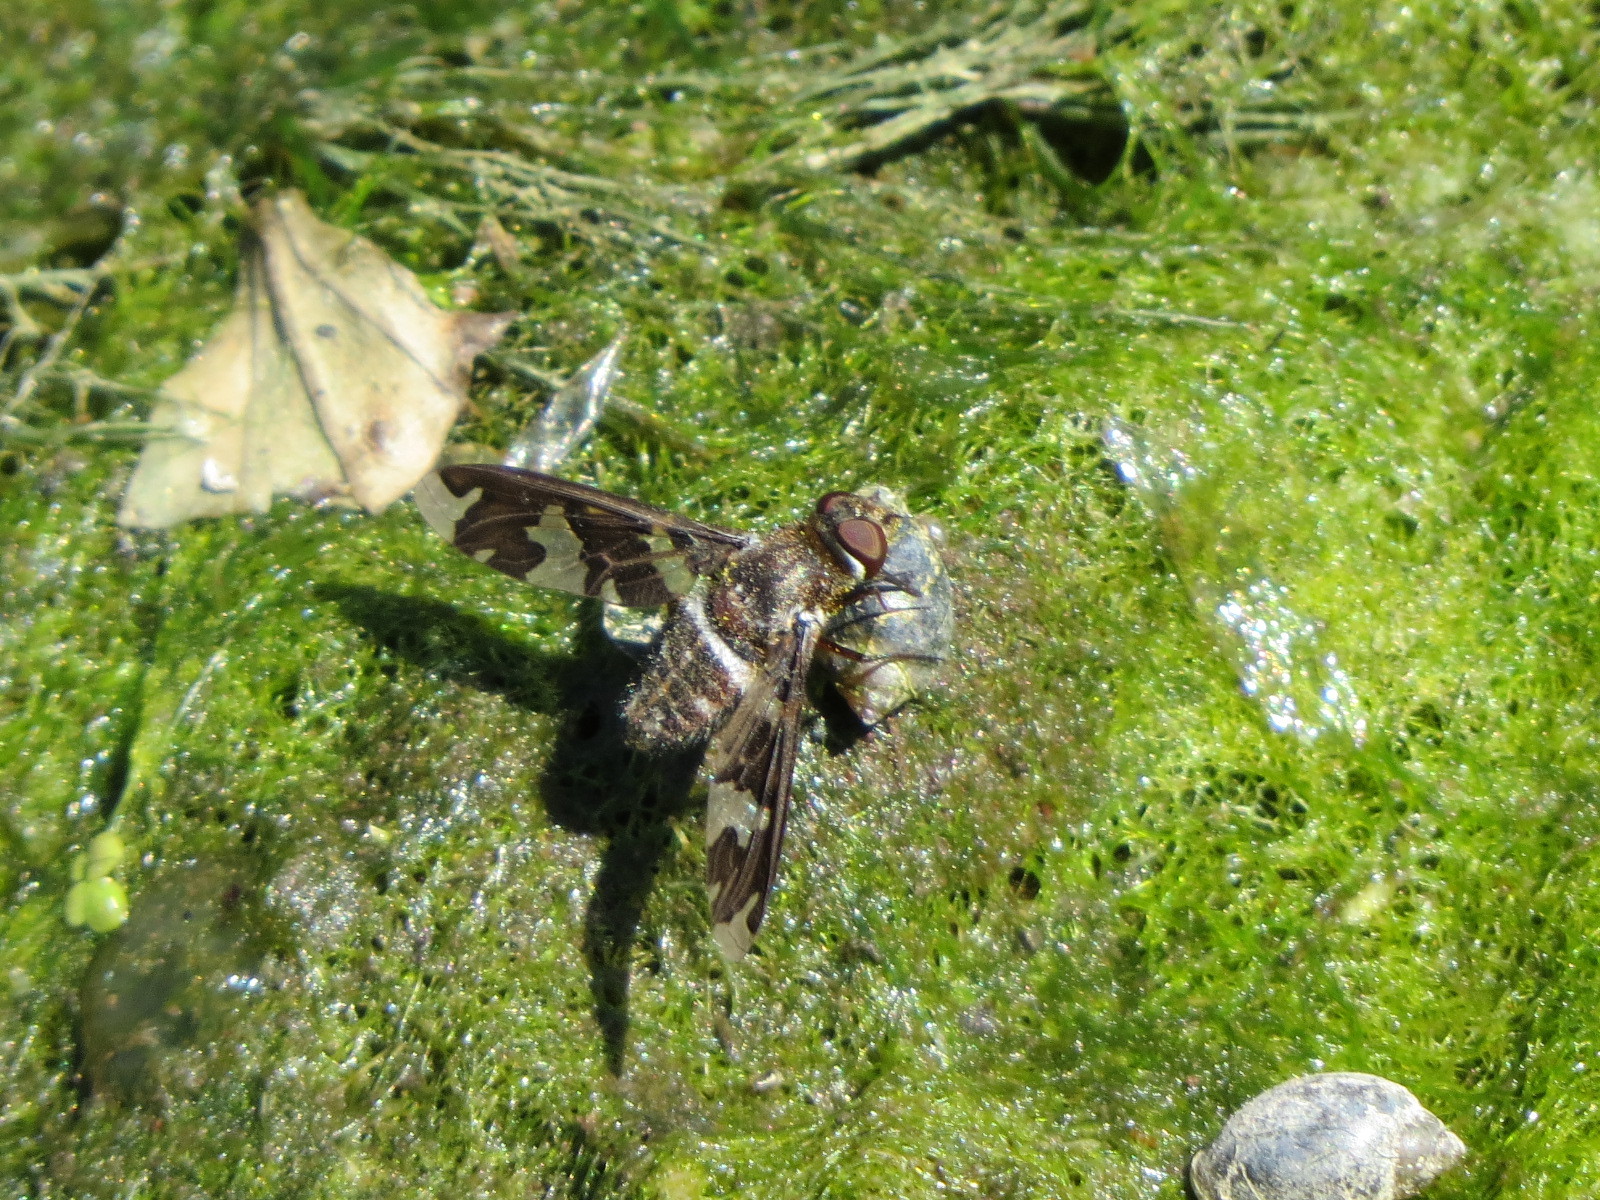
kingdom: Animalia
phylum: Arthropoda
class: Insecta
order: Diptera
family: Bombyliidae
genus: Exoprosopa
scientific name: Exoprosopa dorcadion
